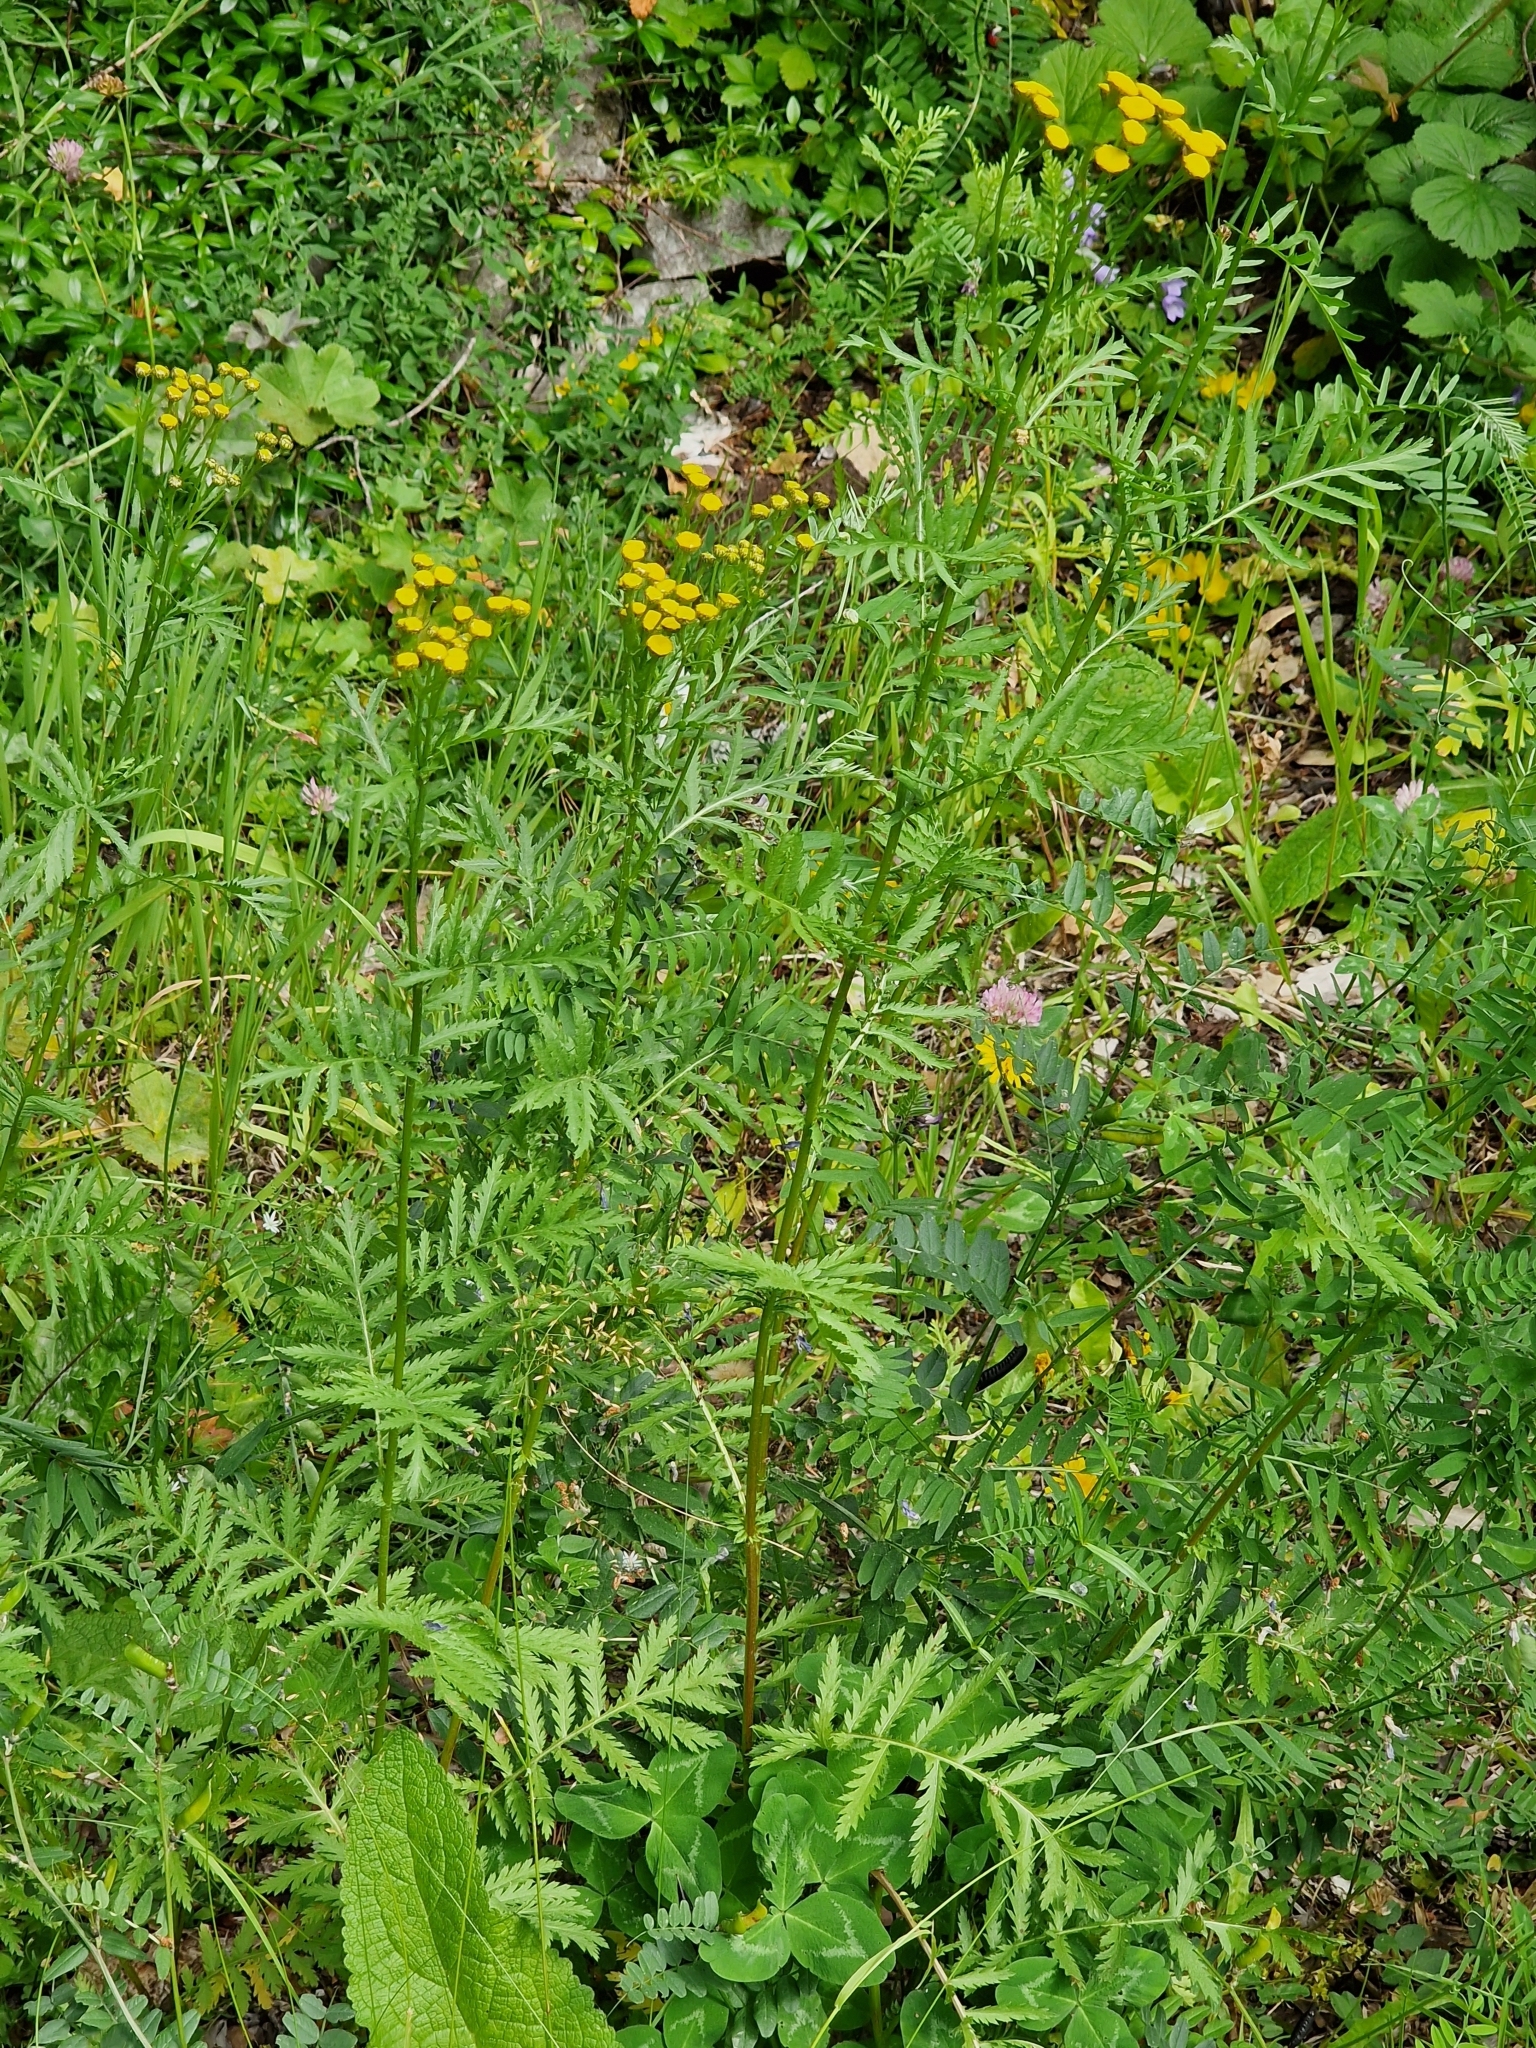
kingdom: Plantae
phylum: Tracheophyta
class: Magnoliopsida
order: Asterales
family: Asteraceae
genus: Tanacetum
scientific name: Tanacetum vulgare
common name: Common tansy
